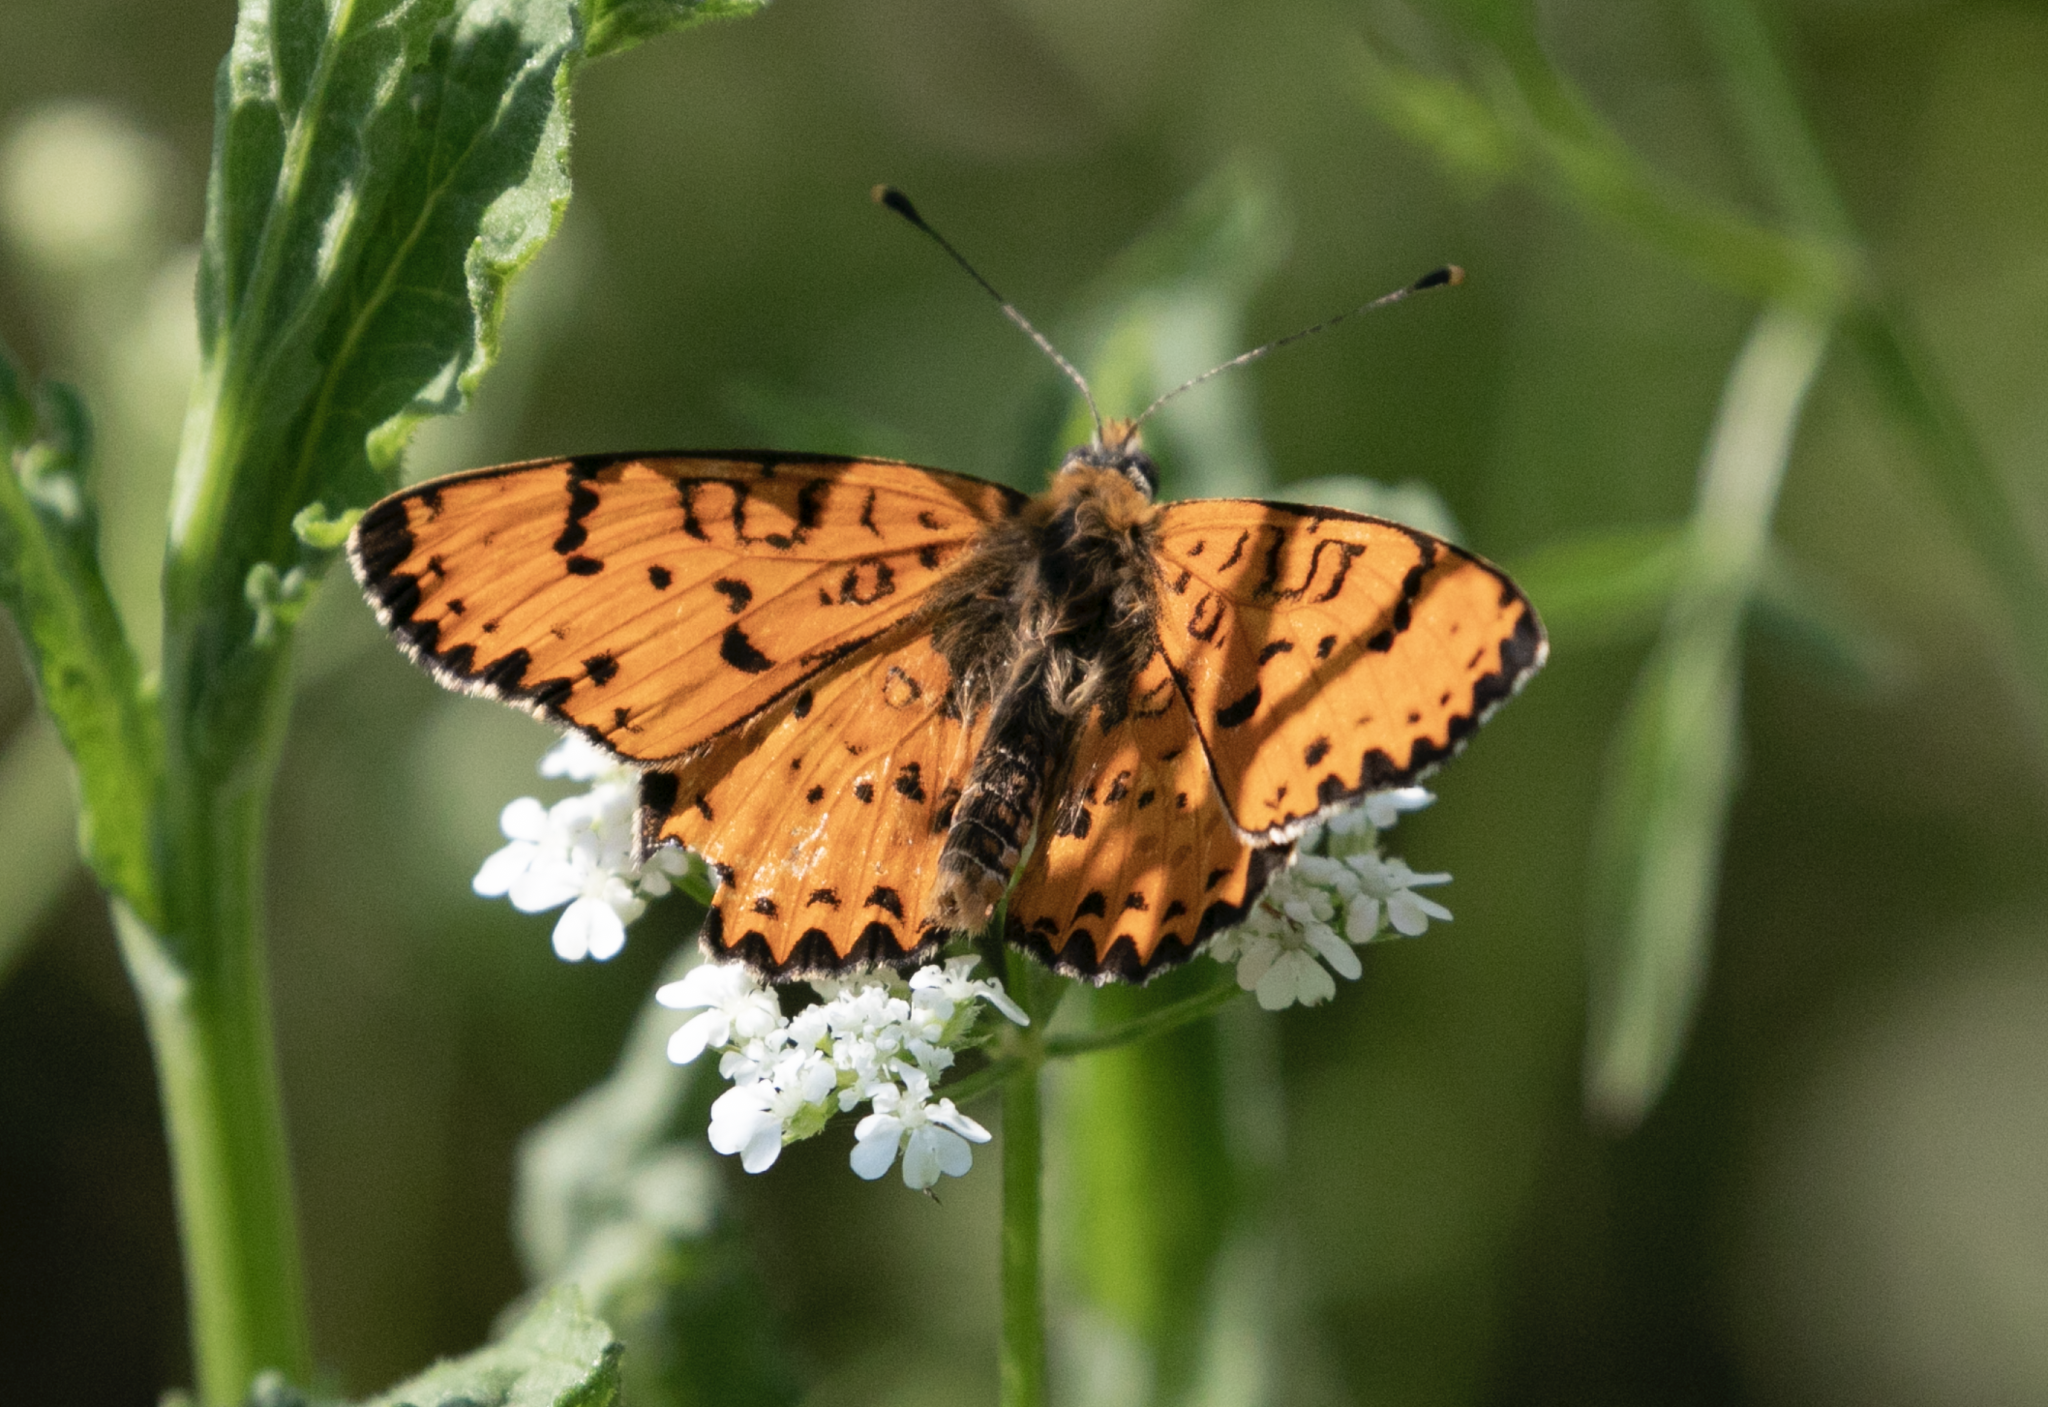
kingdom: Animalia
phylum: Arthropoda
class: Insecta
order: Lepidoptera
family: Nymphalidae
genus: Melitaea
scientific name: Melitaea didyma
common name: Spotted fritillary
